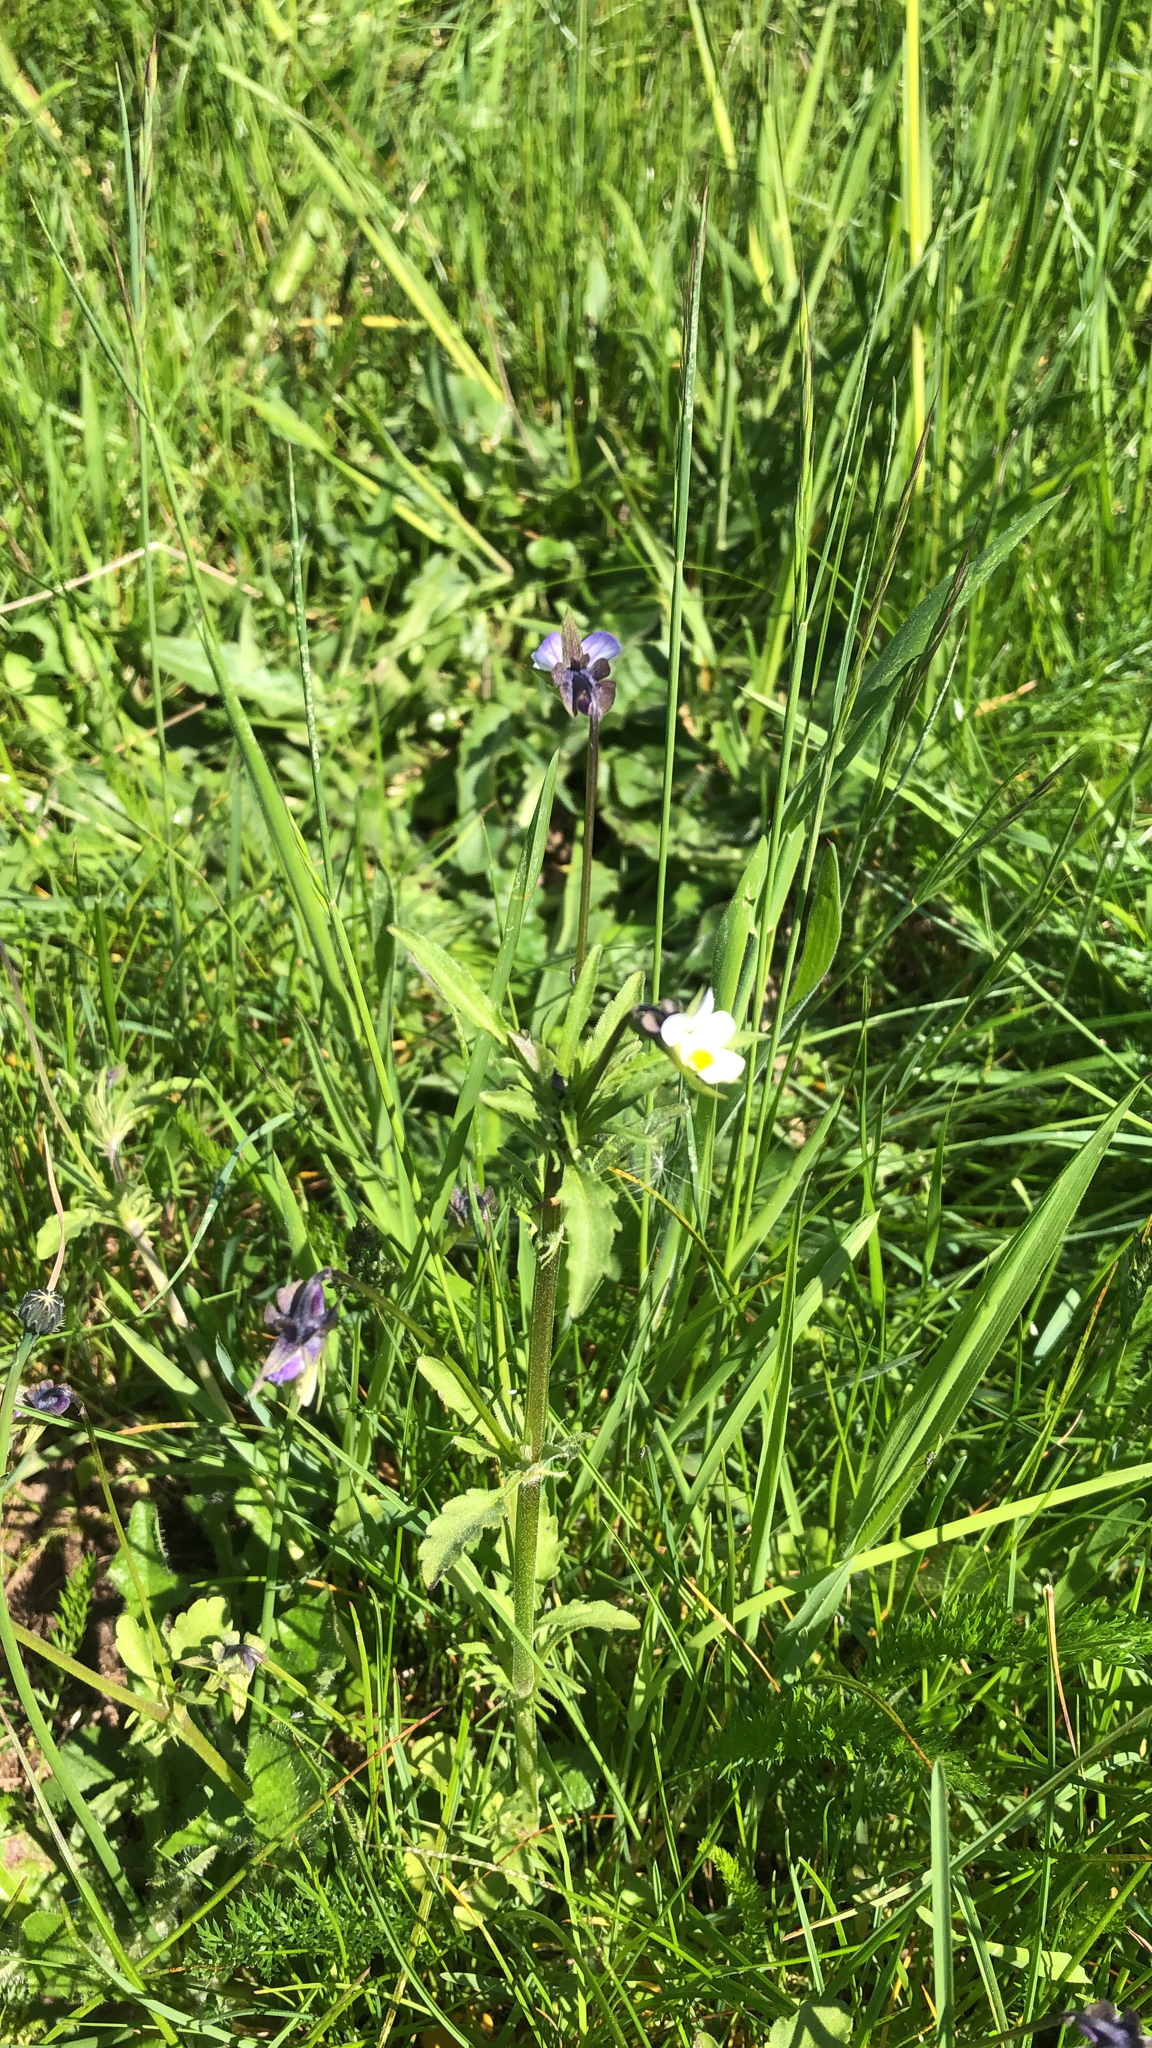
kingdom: Plantae
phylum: Tracheophyta
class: Magnoliopsida
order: Malpighiales
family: Violaceae
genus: Viola
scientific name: Viola arvensis
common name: Field pansy
